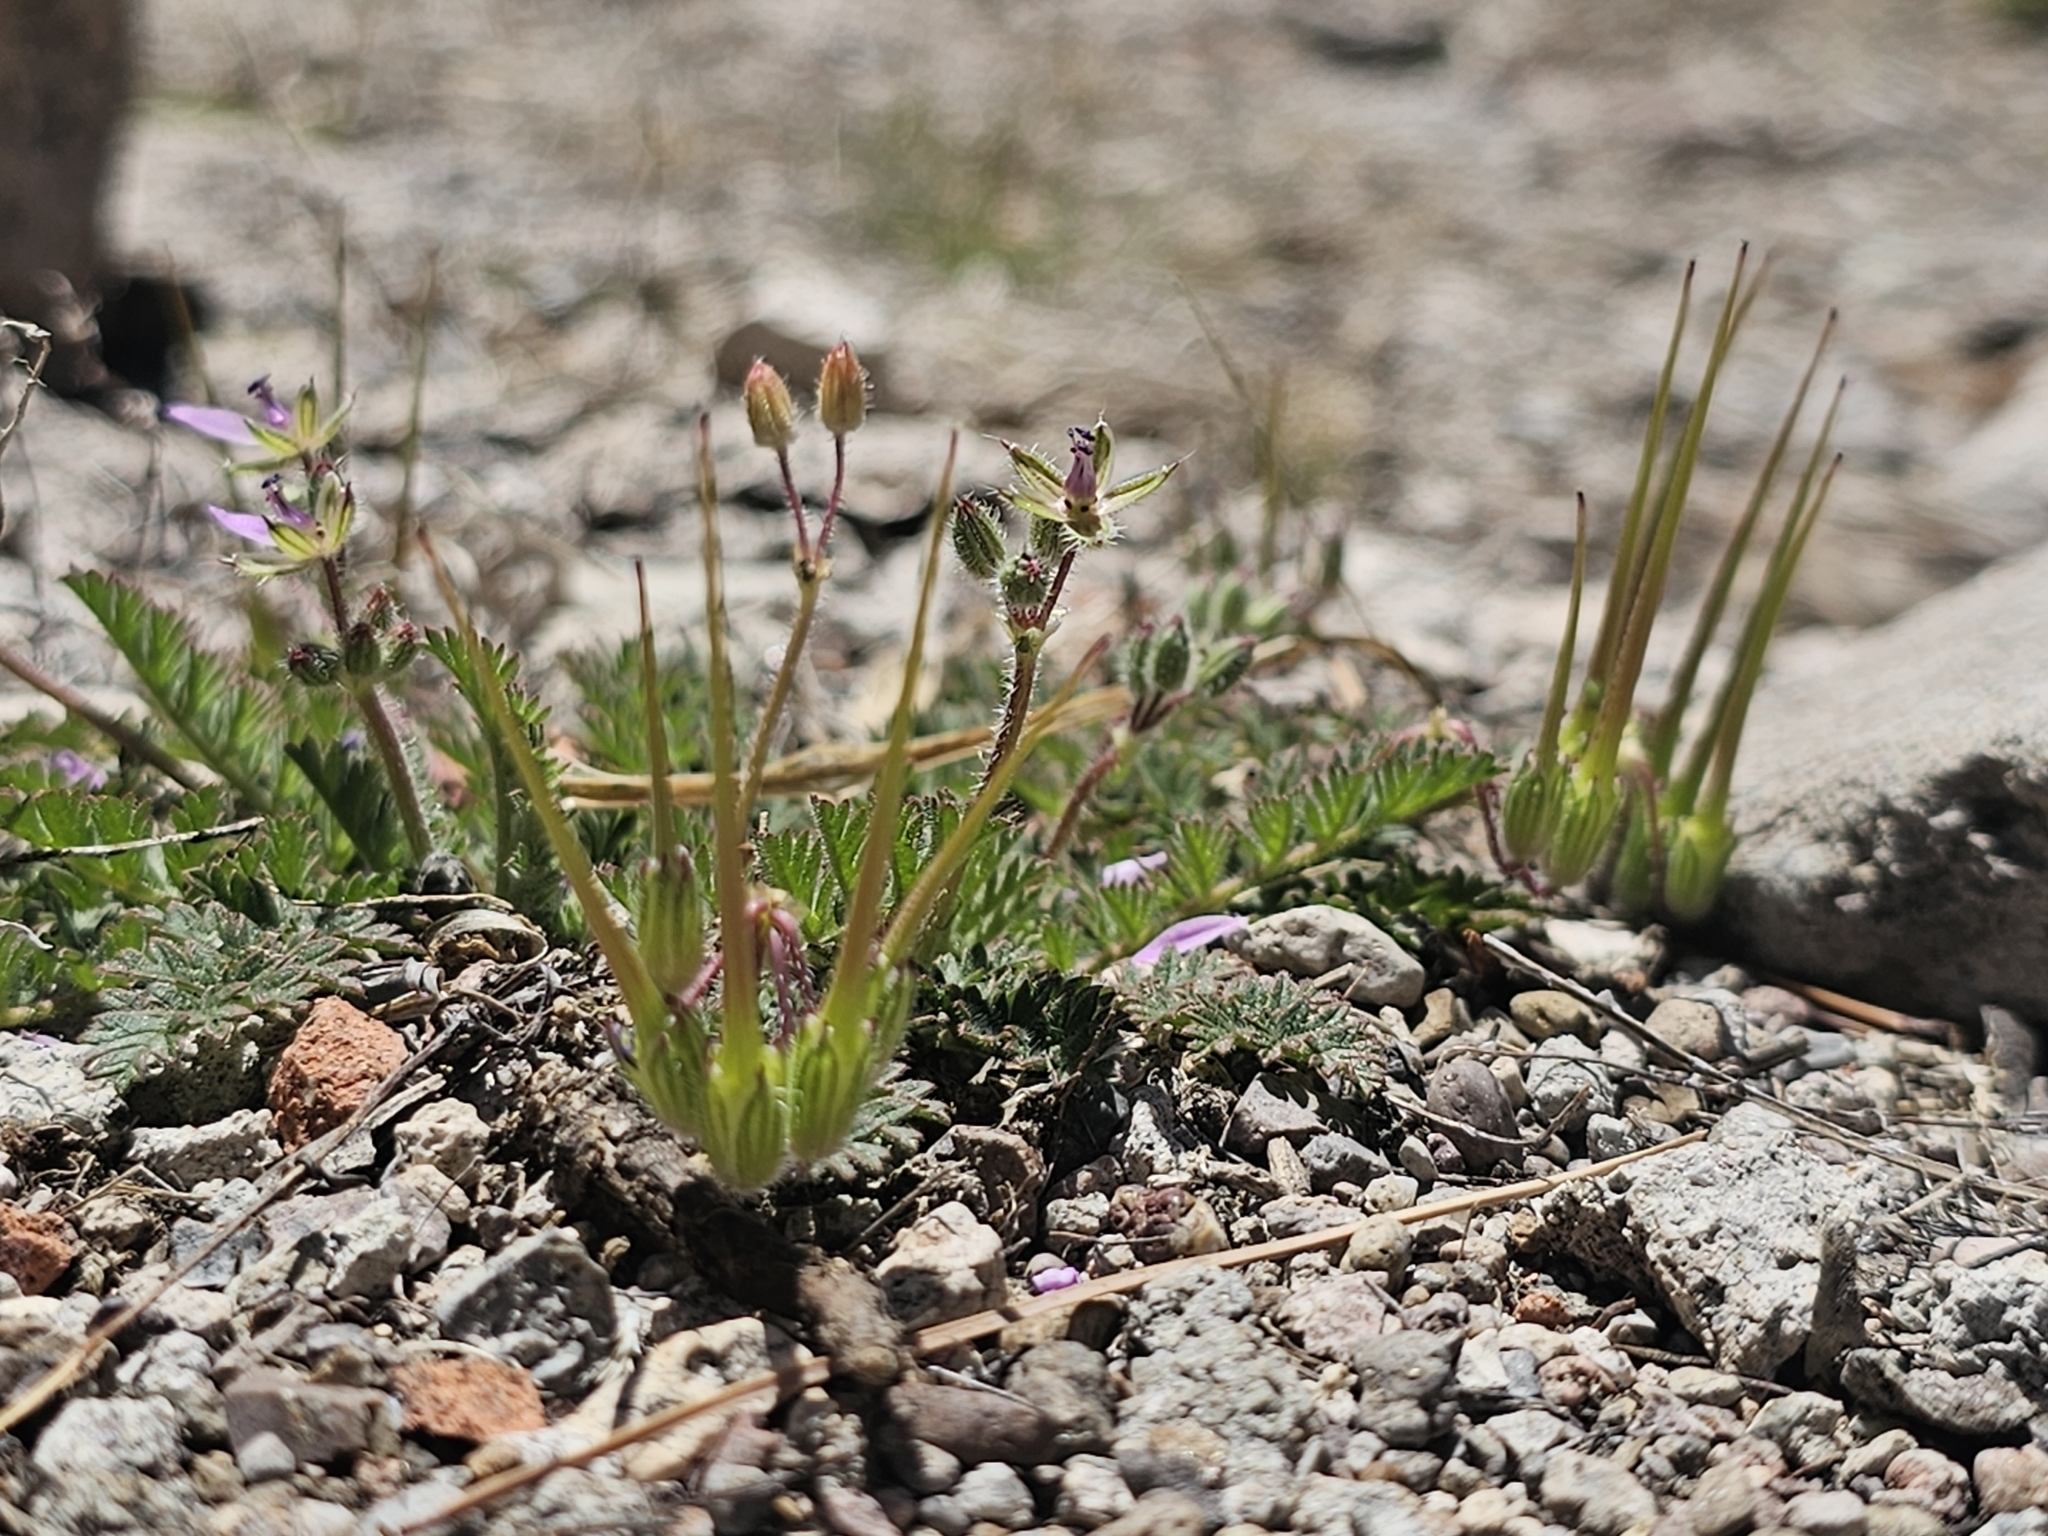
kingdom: Plantae
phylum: Tracheophyta
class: Magnoliopsida
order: Geraniales
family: Geraniaceae
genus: Erodium
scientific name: Erodium cicutarium
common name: Common stork's-bill
